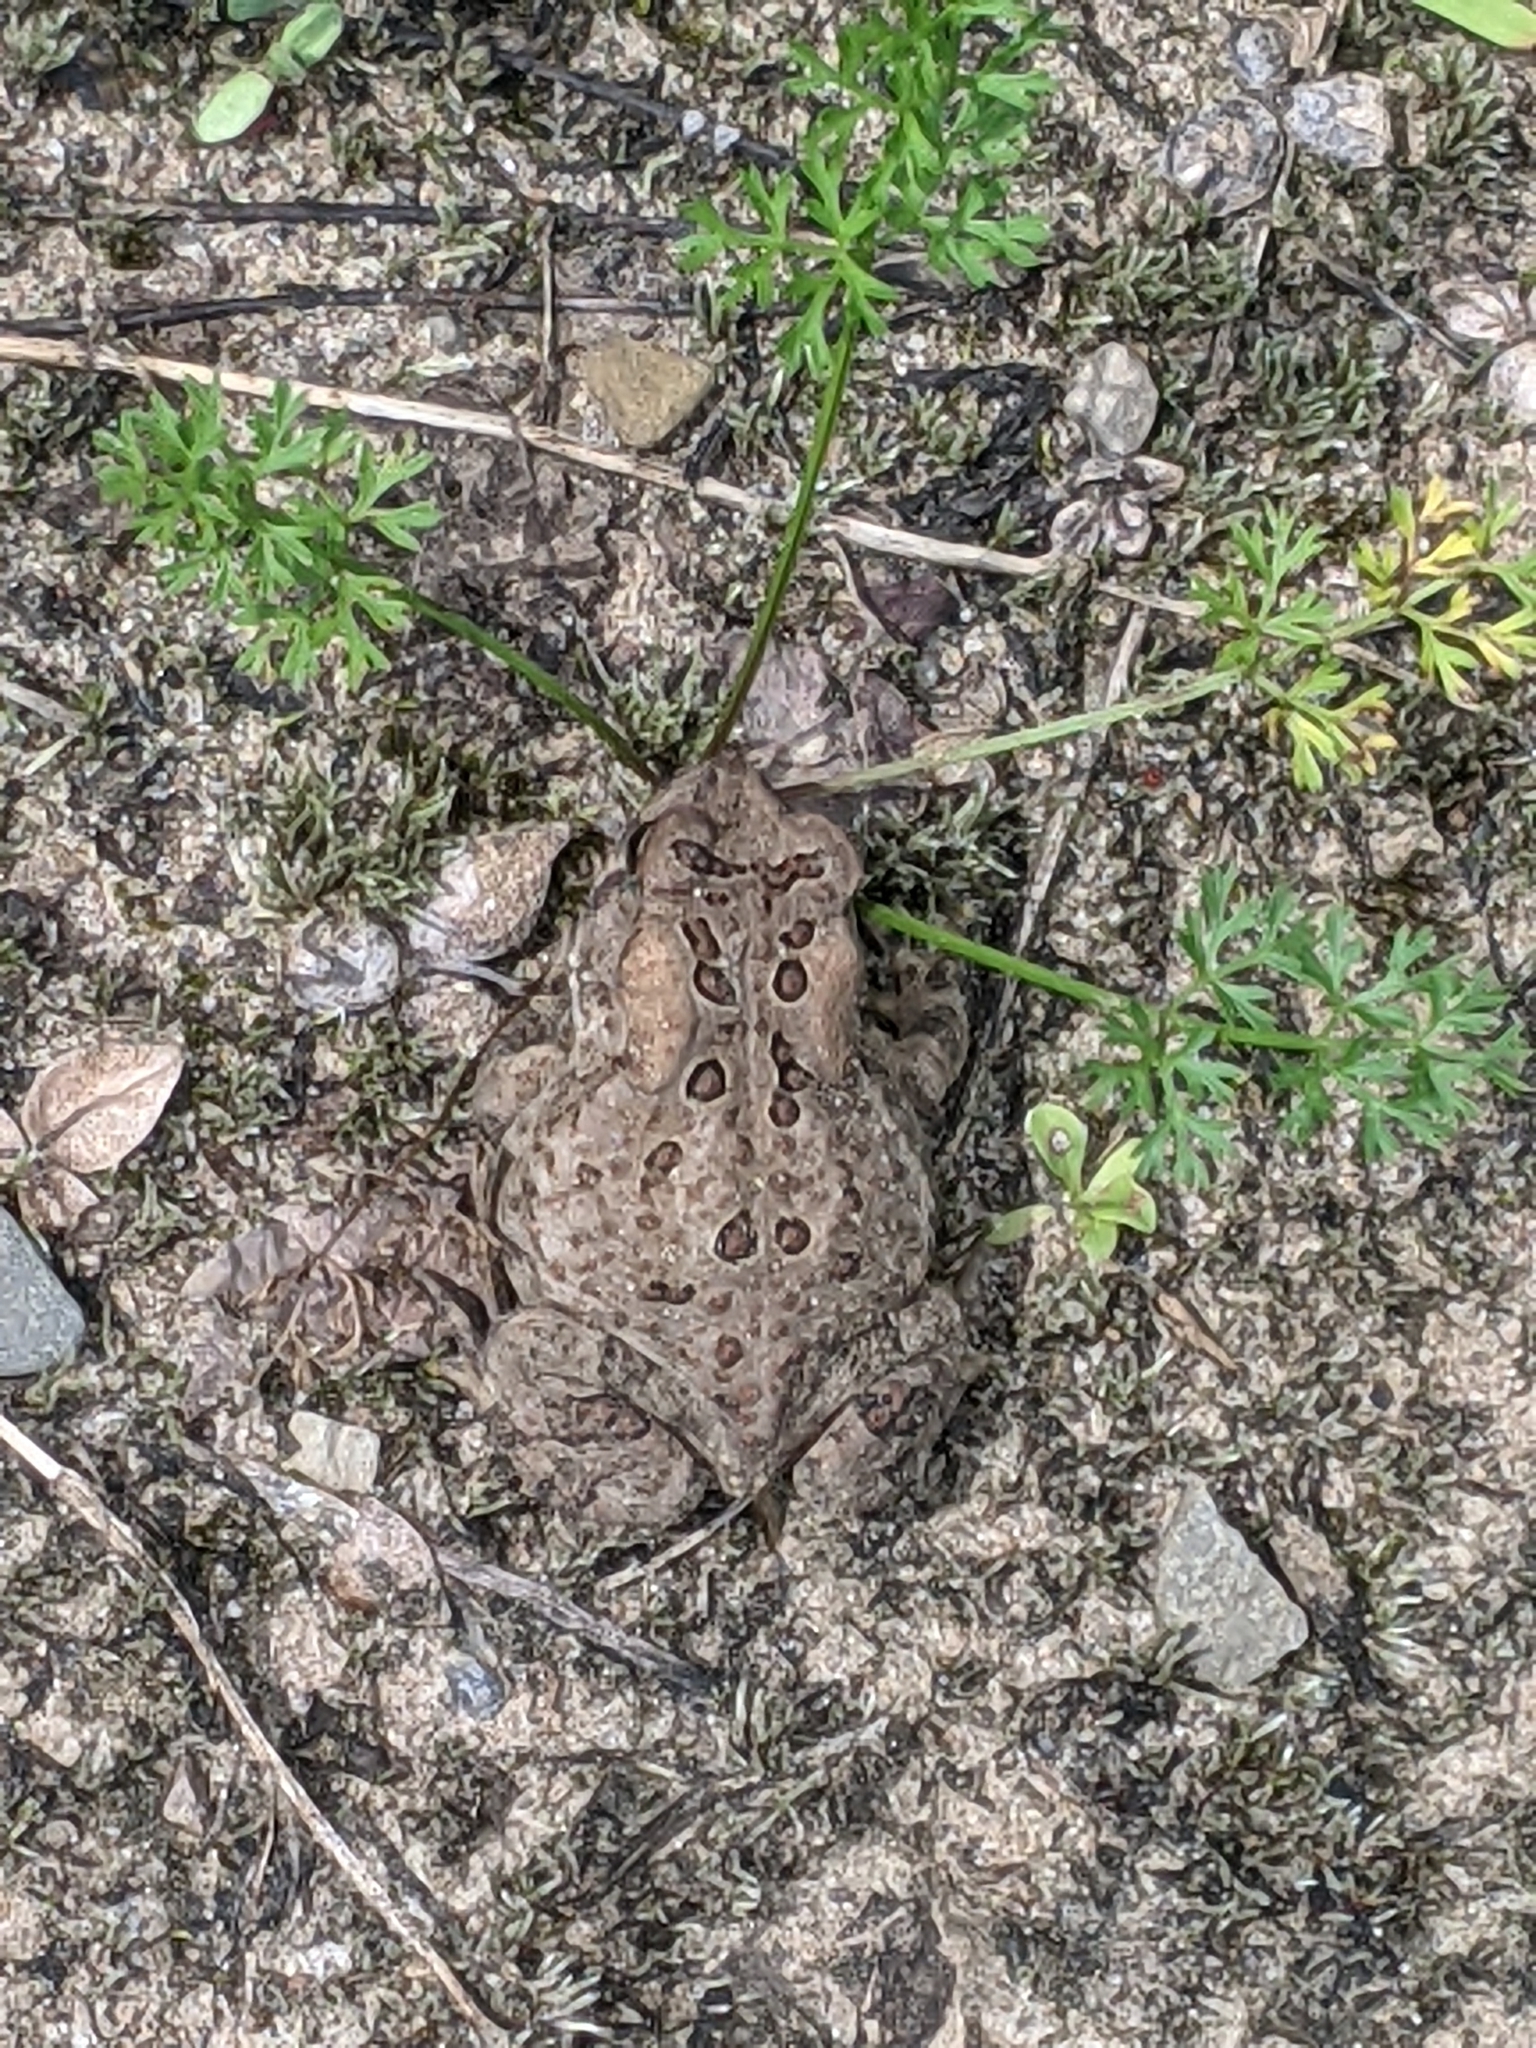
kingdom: Animalia
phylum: Chordata
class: Amphibia
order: Anura
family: Bufonidae
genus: Anaxyrus
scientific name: Anaxyrus americanus
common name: American toad
